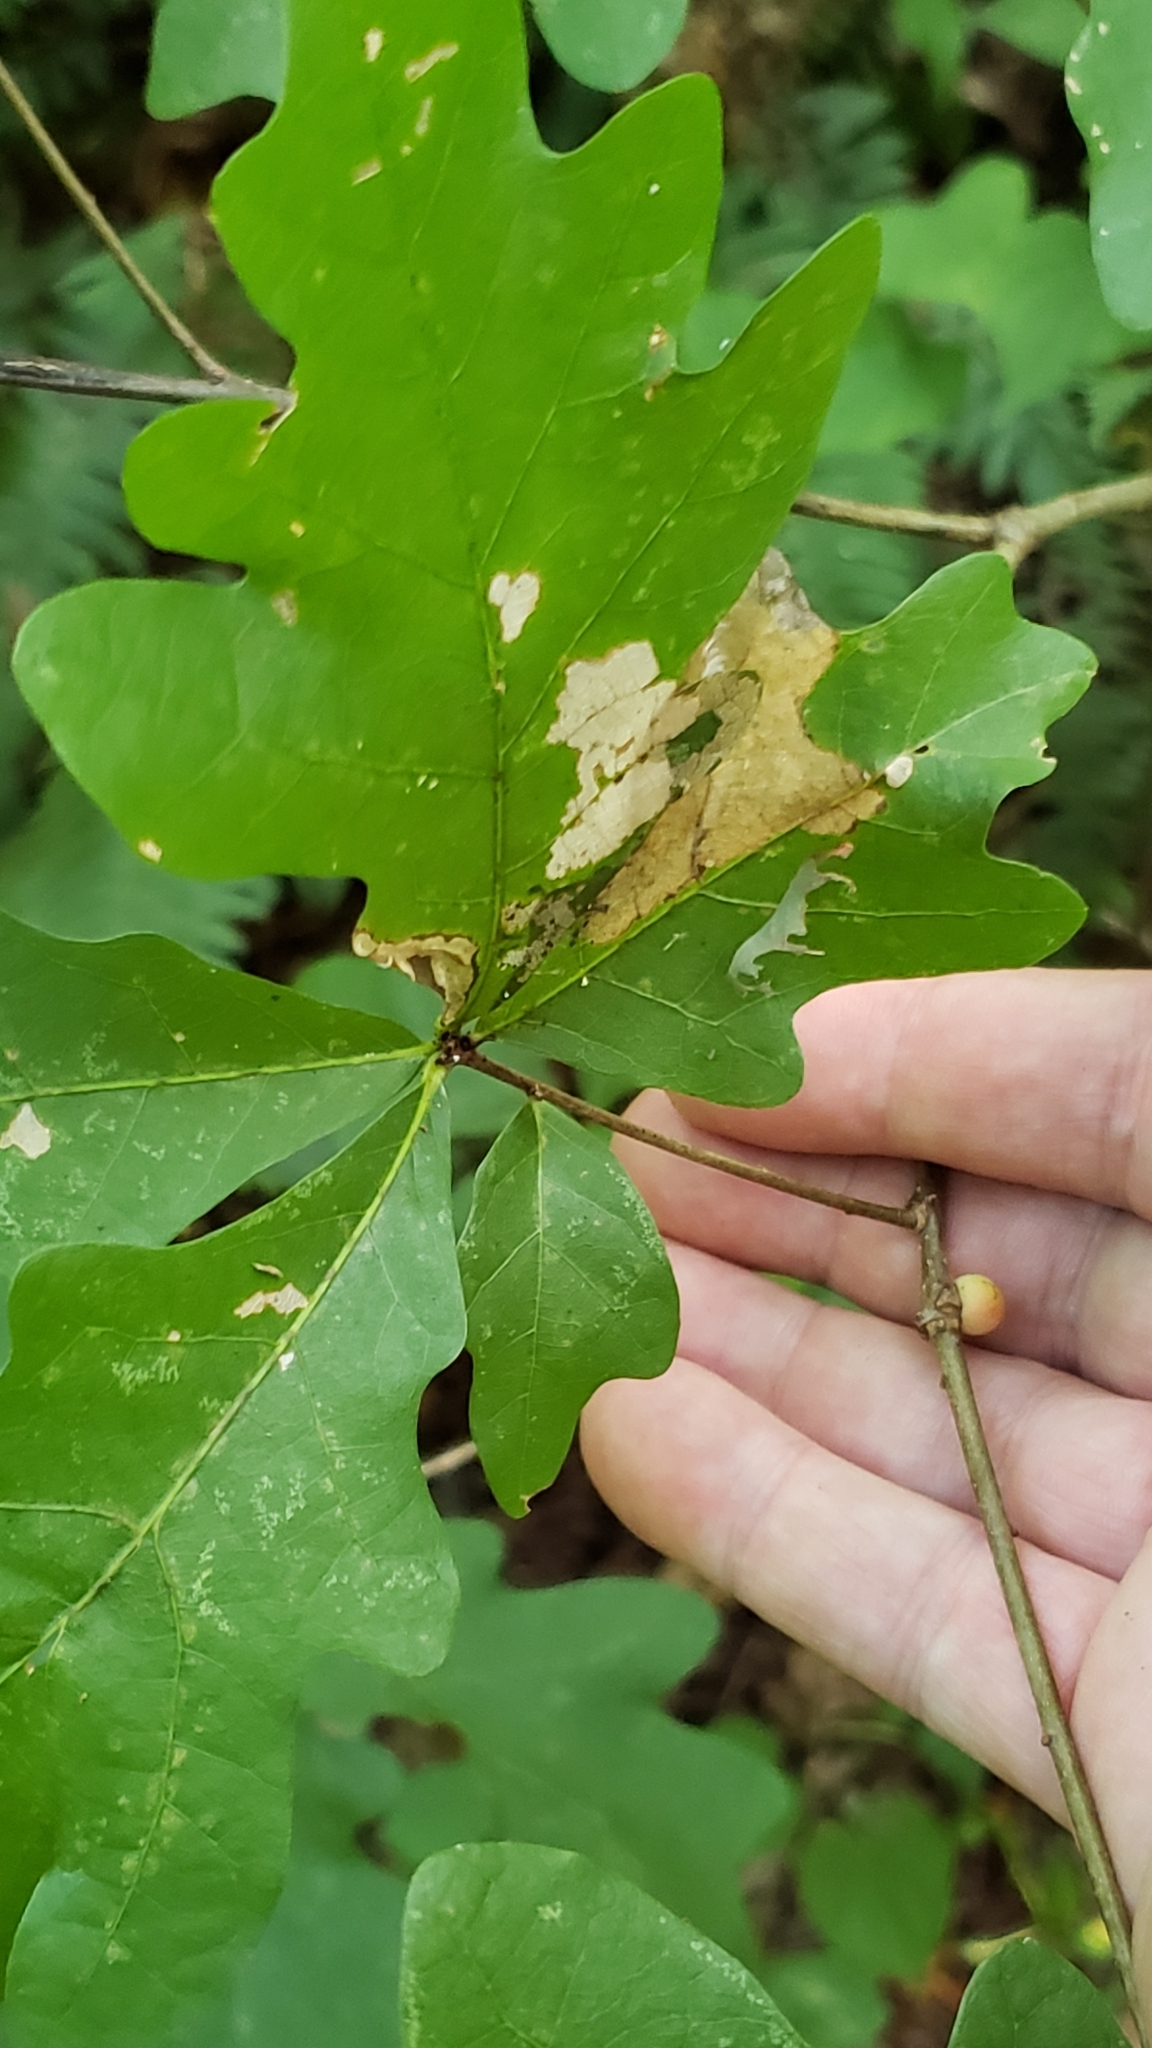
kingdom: Animalia
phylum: Arthropoda
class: Insecta
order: Hymenoptera
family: Cynipidae
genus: Disholcaspis
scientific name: Disholcaspis quercusglobulus
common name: Round bullet gall wasp
